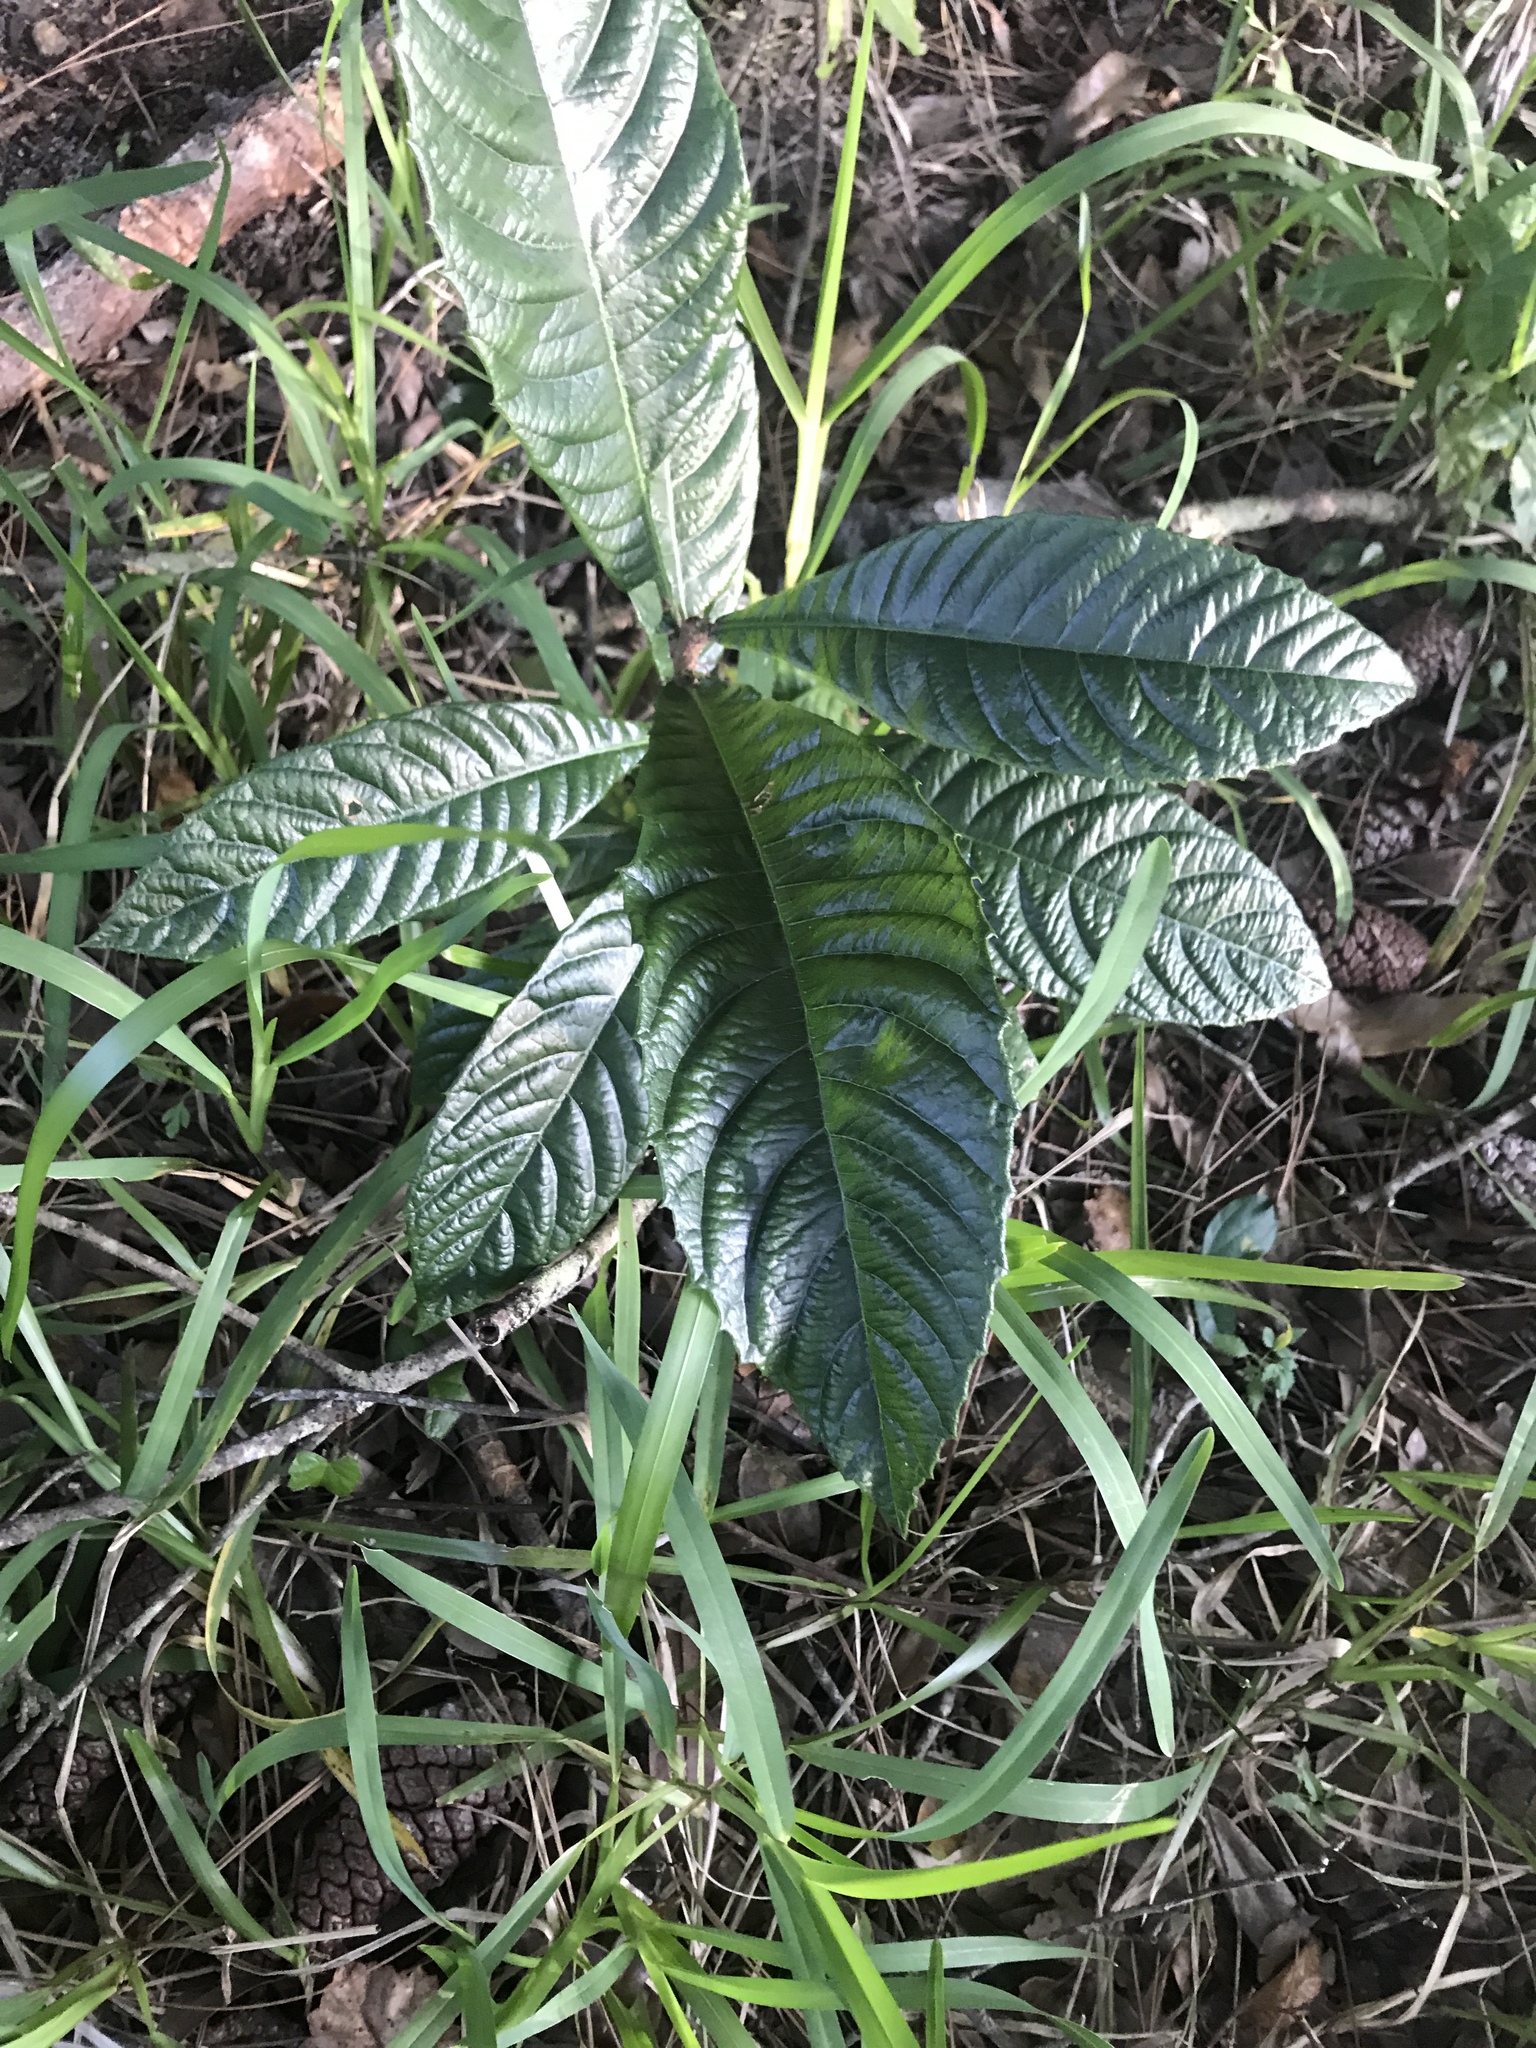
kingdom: Plantae
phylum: Tracheophyta
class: Magnoliopsida
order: Rosales
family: Rosaceae
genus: Rhaphiolepis
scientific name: Rhaphiolepis bibas
